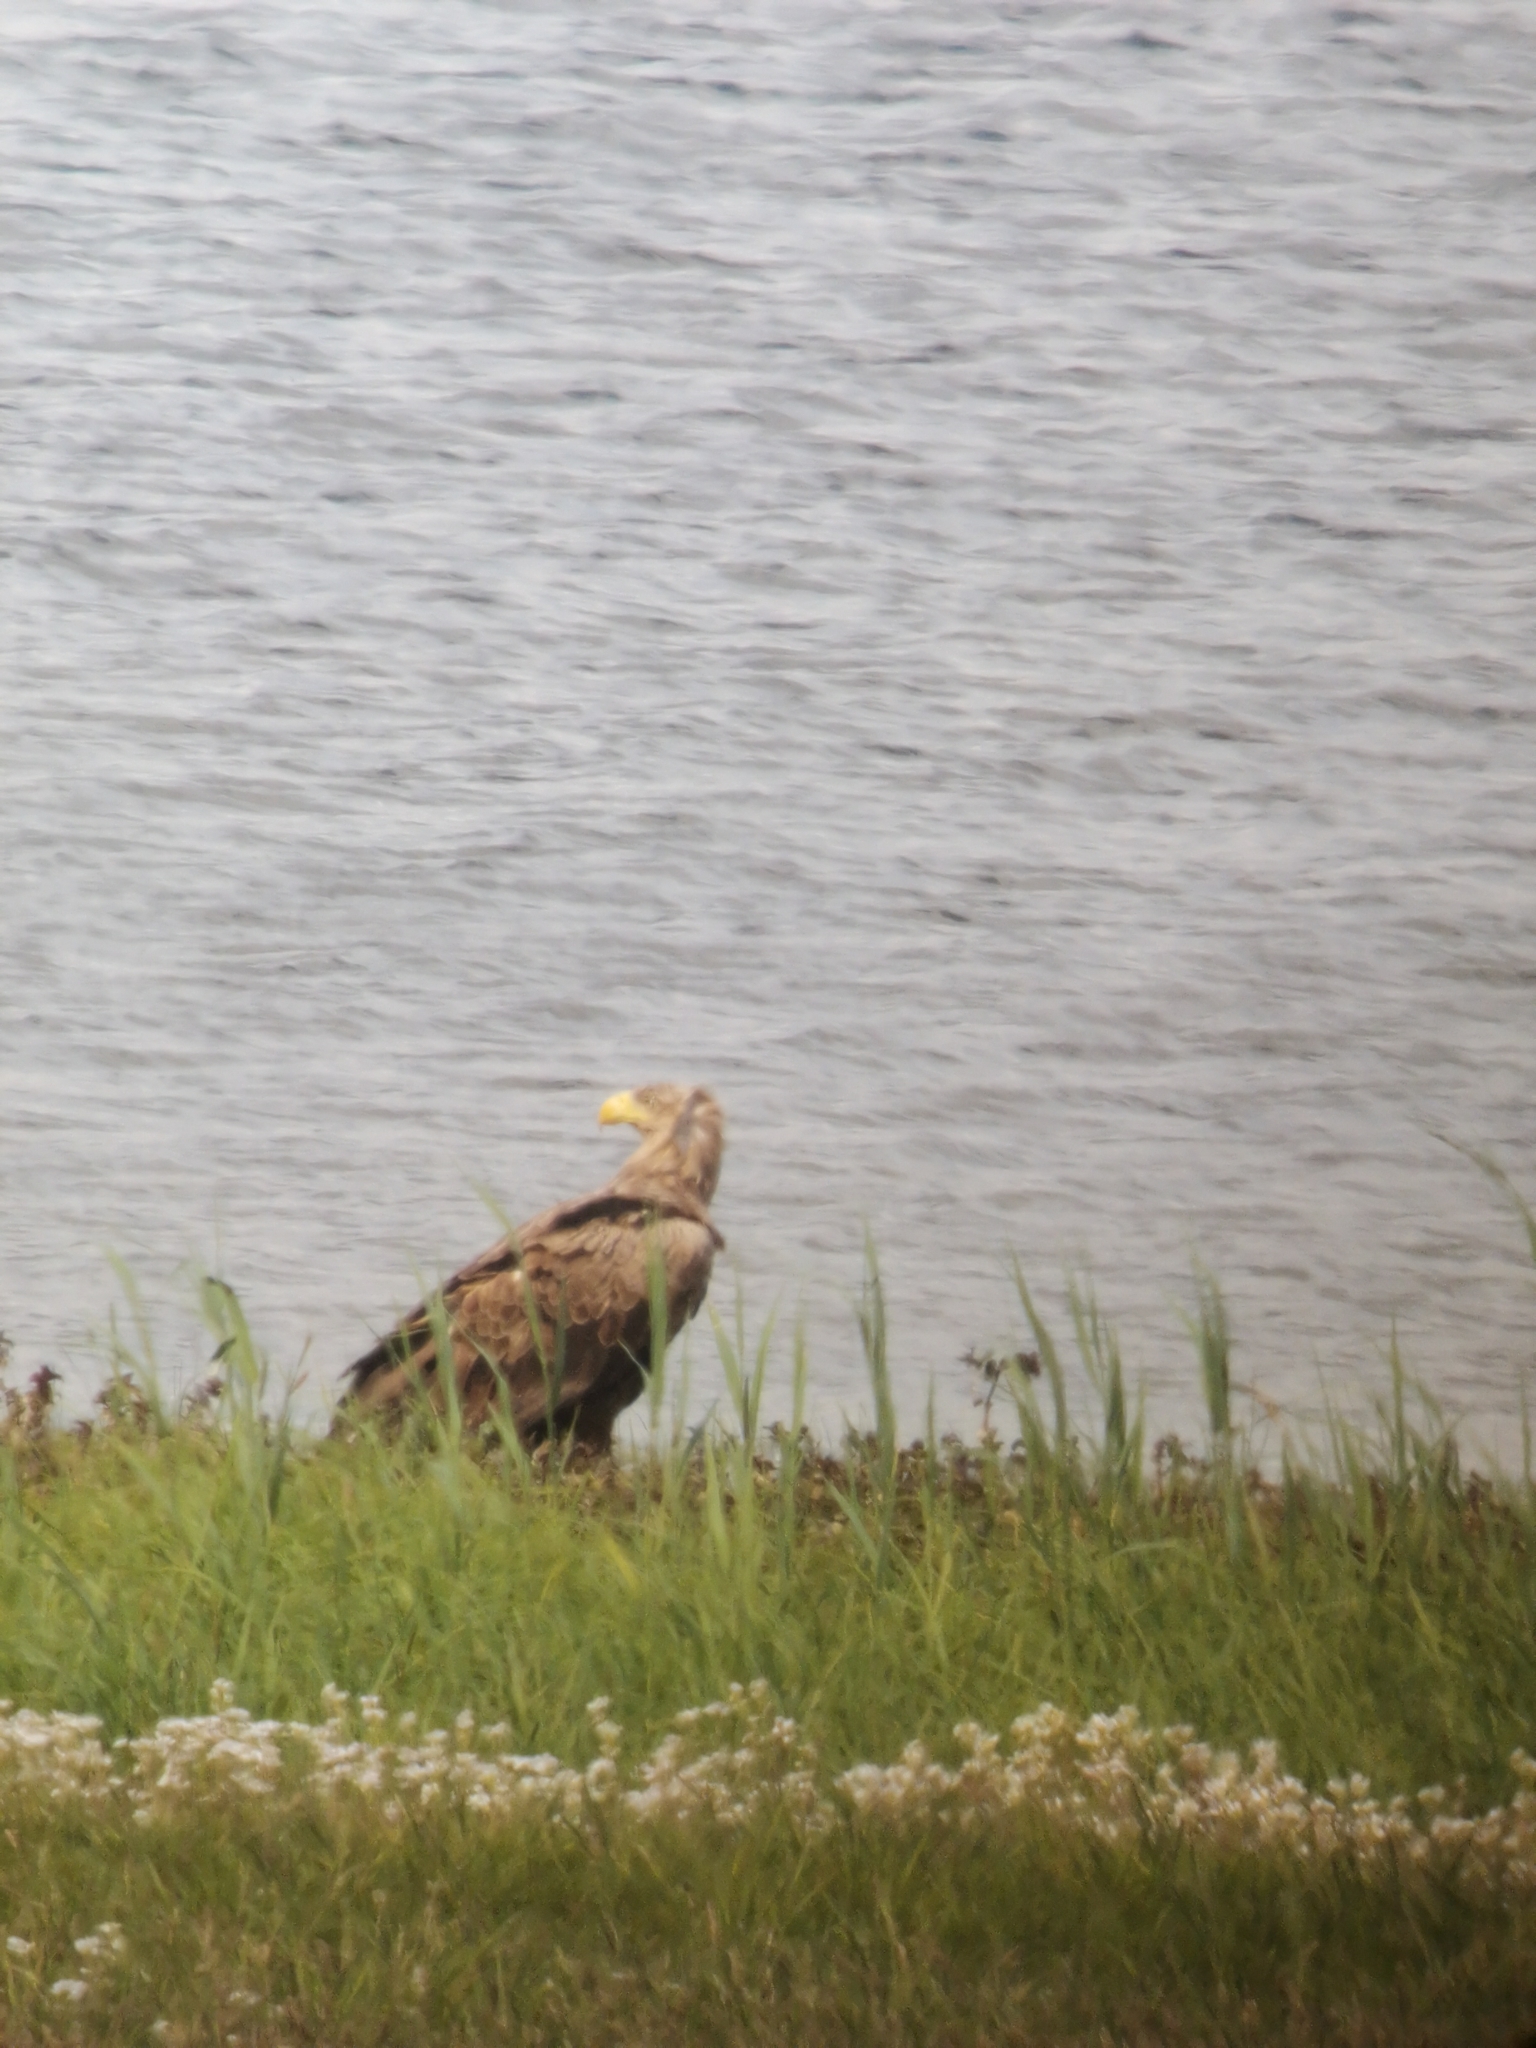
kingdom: Animalia
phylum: Chordata
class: Aves
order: Accipitriformes
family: Accipitridae
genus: Haliaeetus
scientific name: Haliaeetus albicilla
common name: White-tailed eagle
